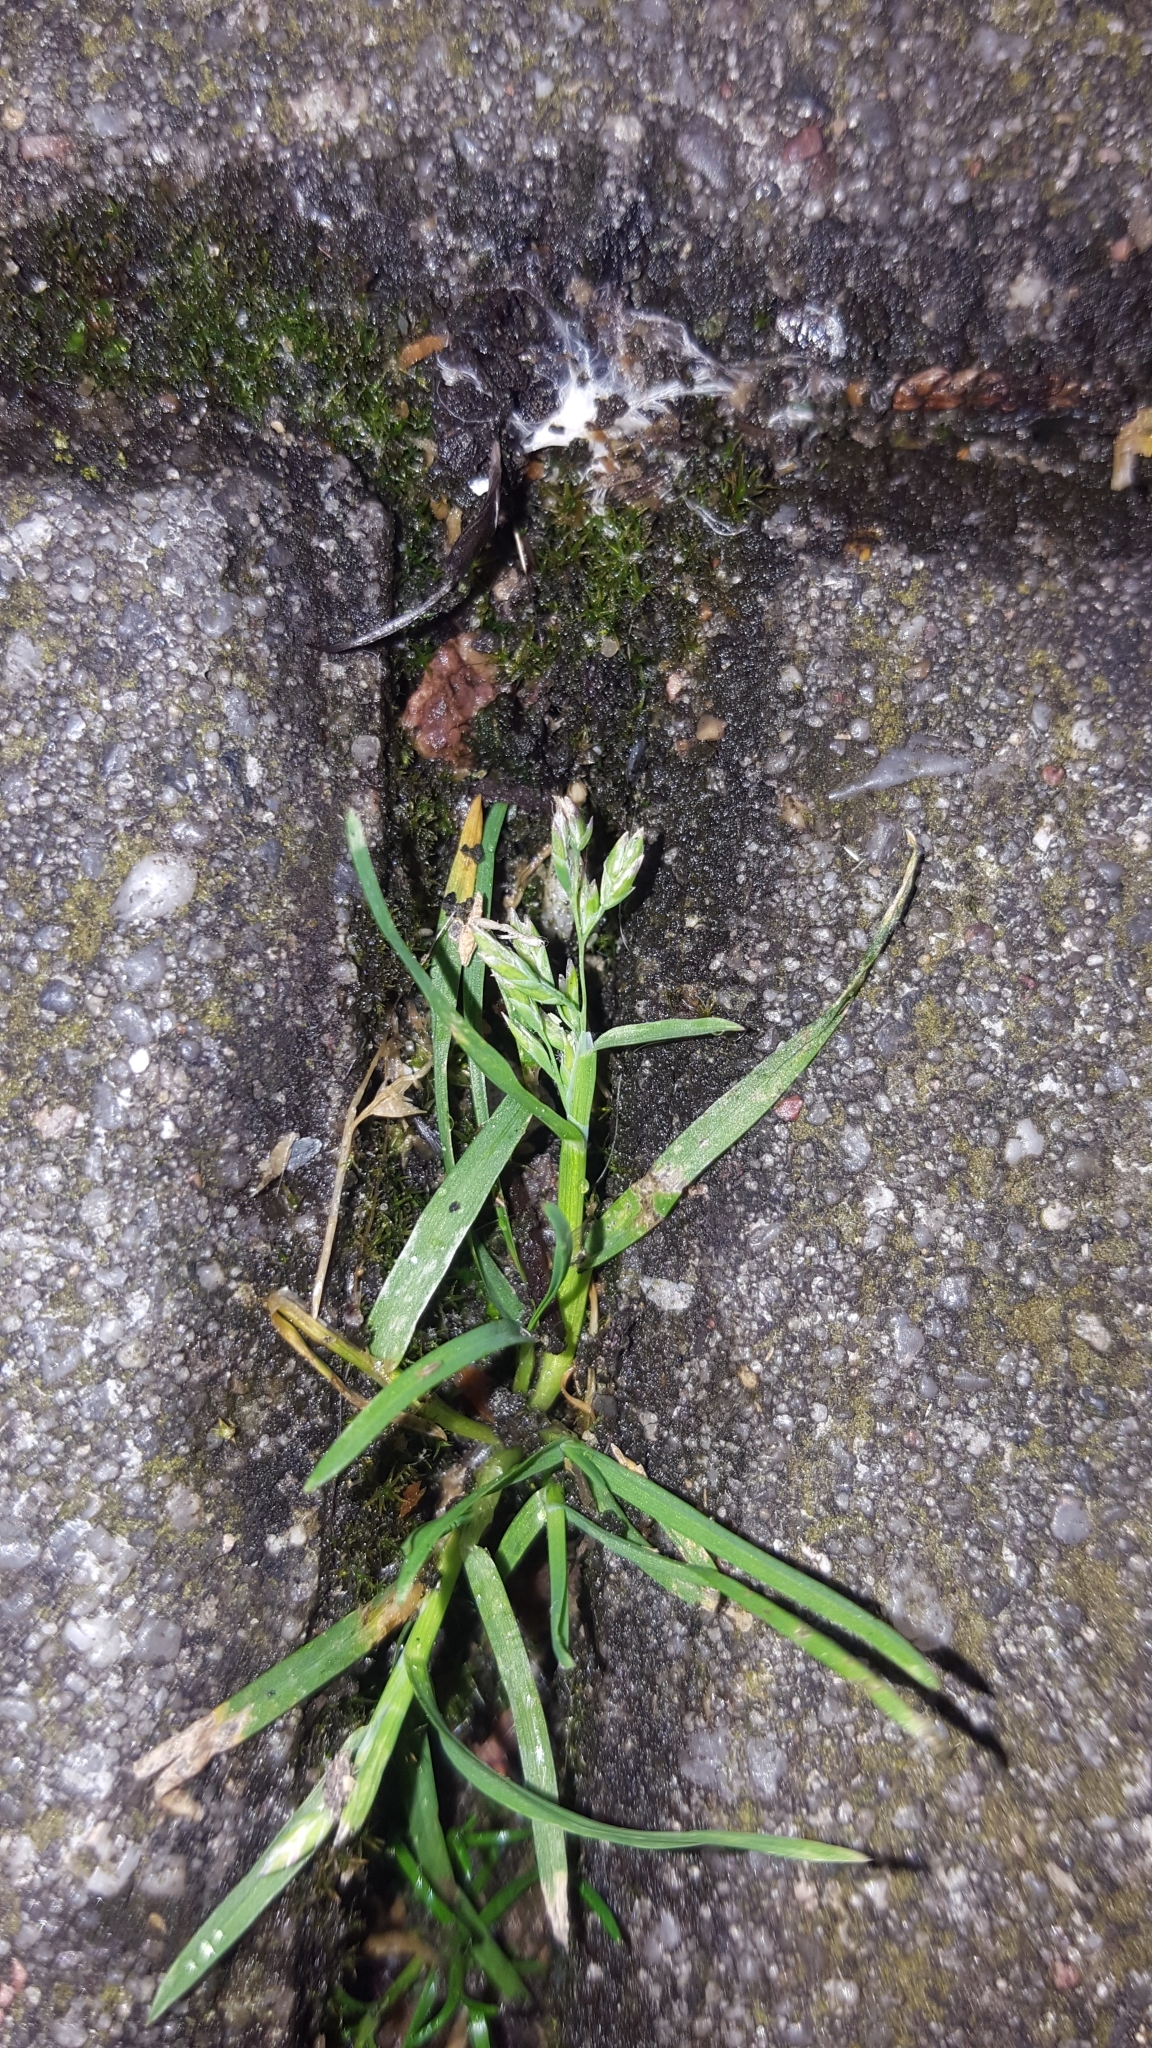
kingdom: Plantae
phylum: Tracheophyta
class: Liliopsida
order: Poales
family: Poaceae
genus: Poa
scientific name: Poa annua
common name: Annual bluegrass
